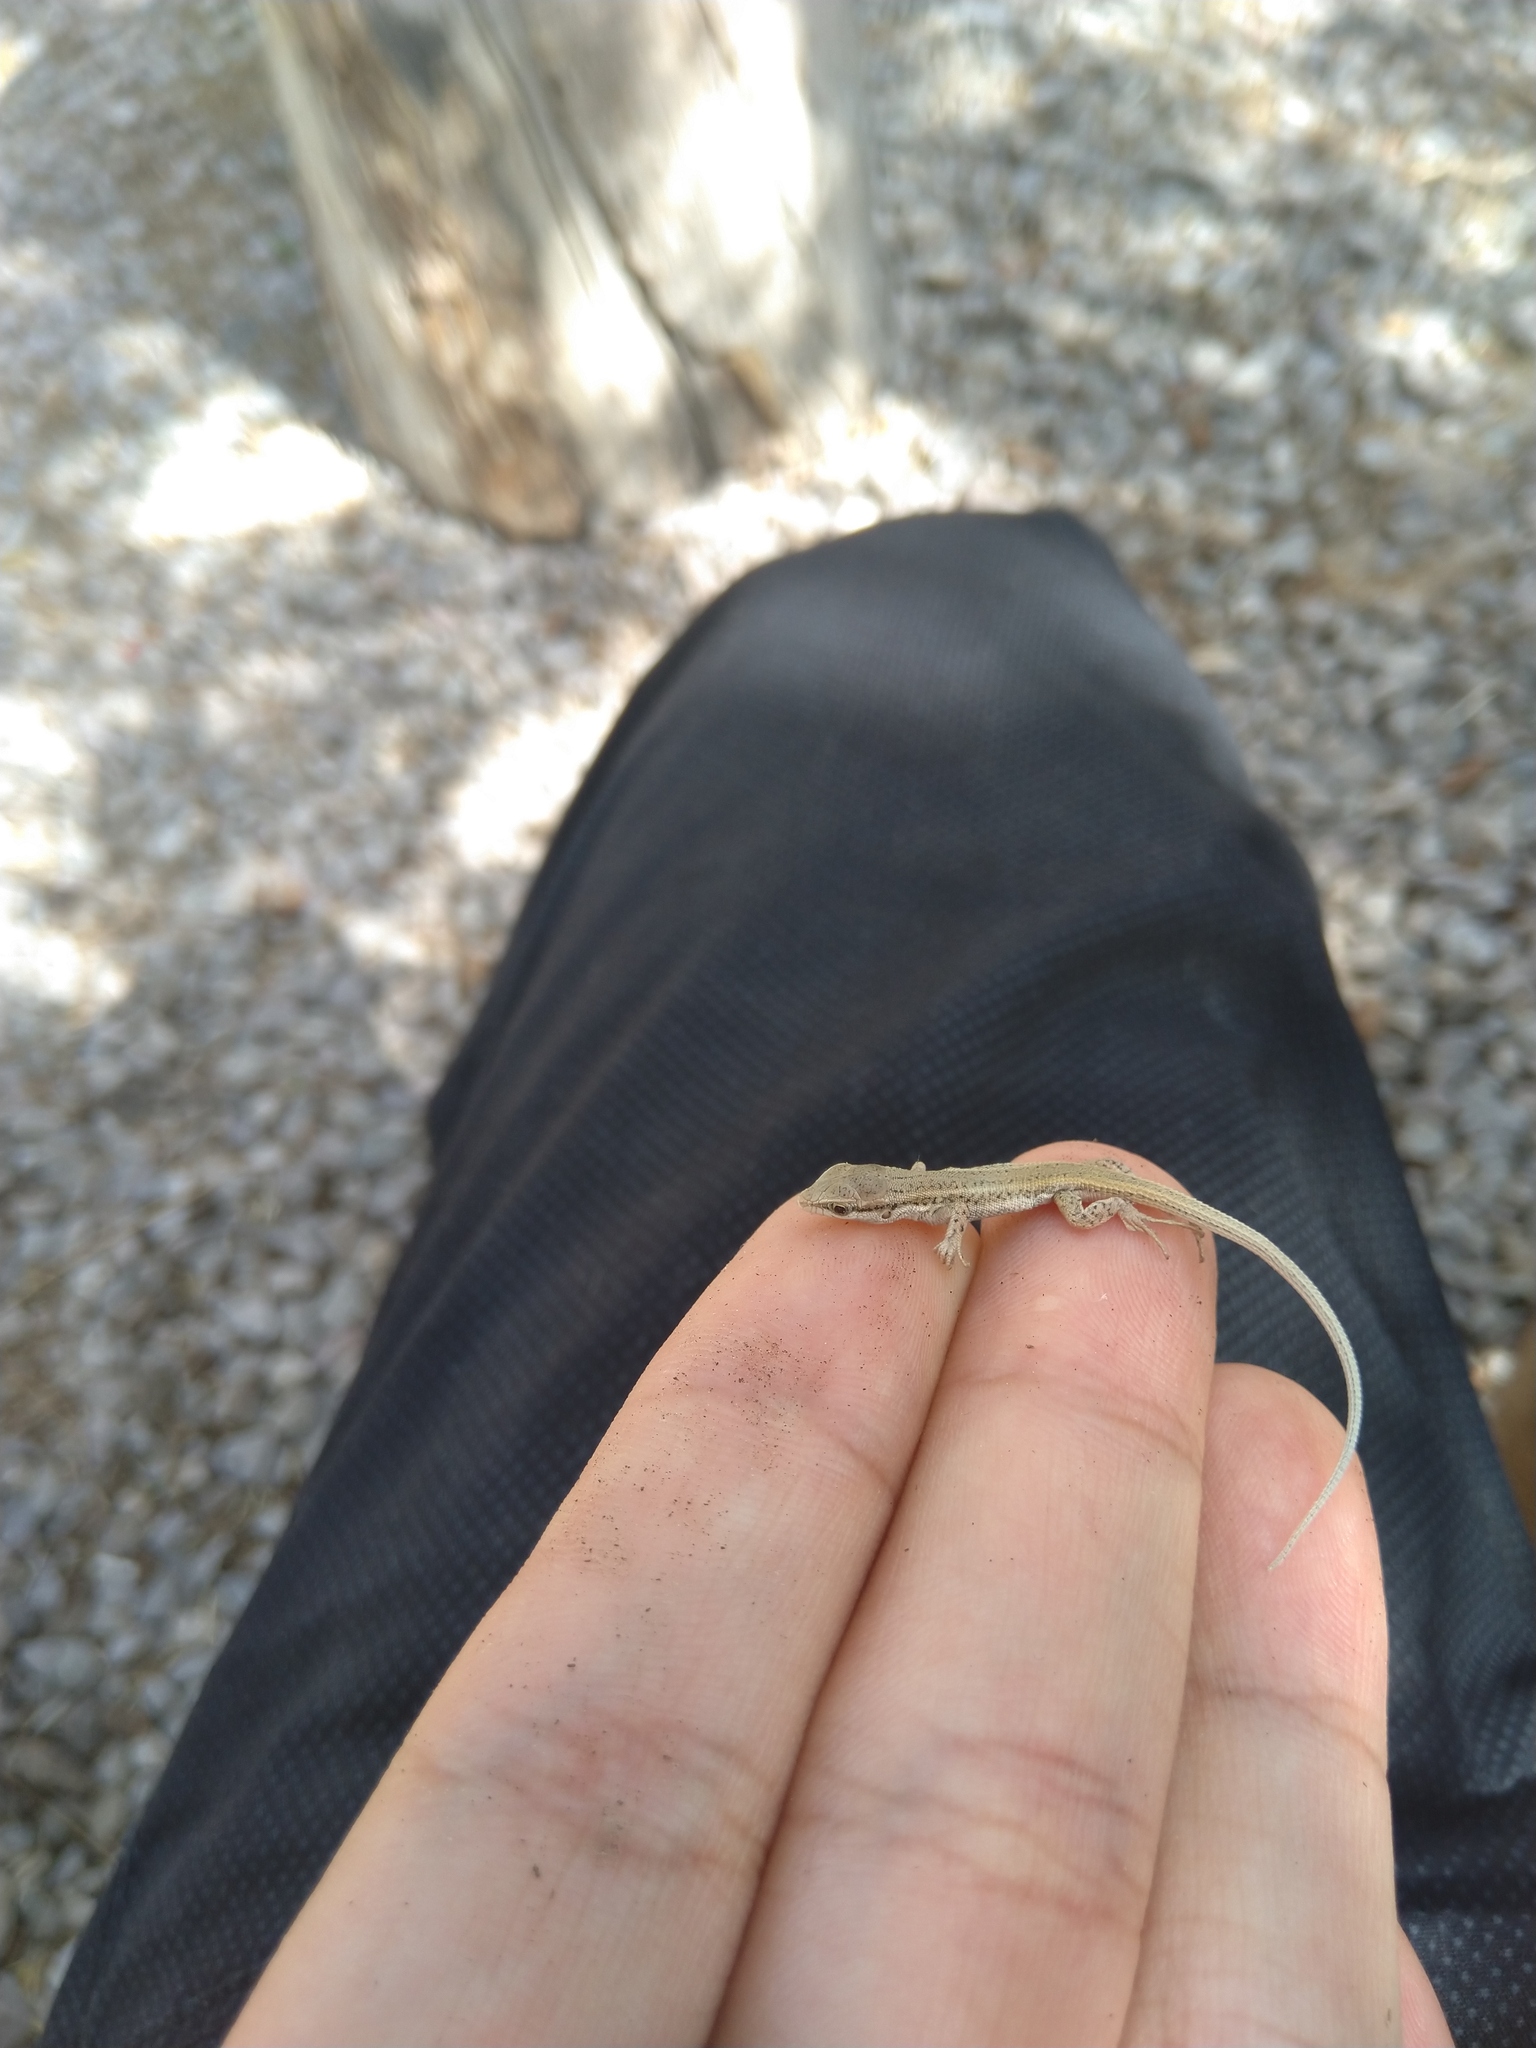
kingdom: Animalia
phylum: Chordata
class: Squamata
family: Lacertidae
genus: Ophisops
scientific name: Ophisops elegans
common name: Snake-eyed lizard
